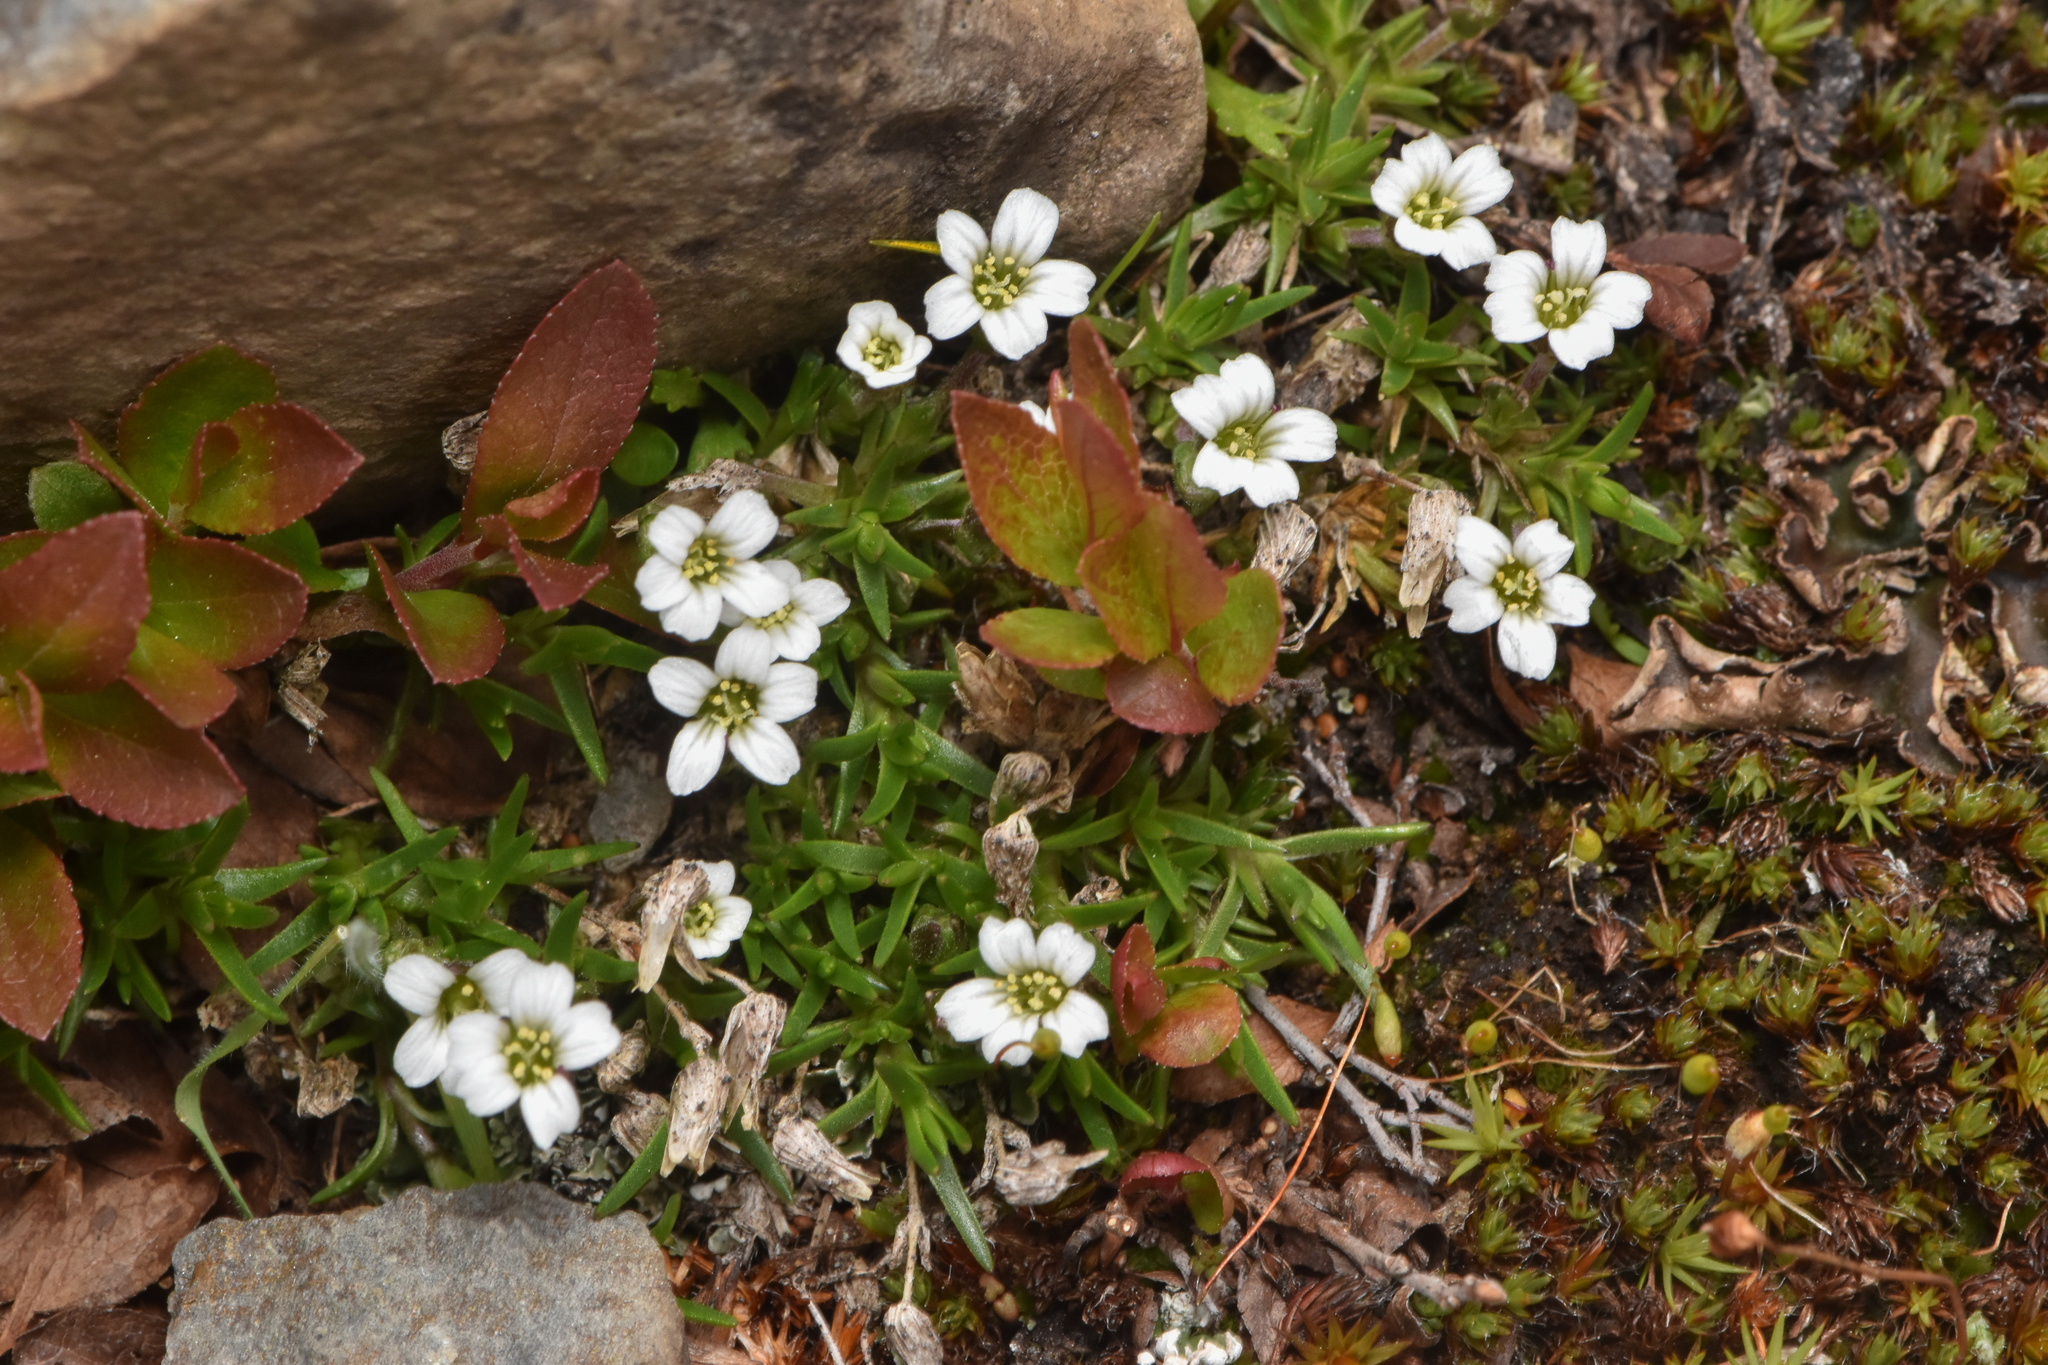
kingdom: Plantae
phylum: Tracheophyta
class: Magnoliopsida
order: Caryophyllales
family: Caryophyllaceae
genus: Cherleria
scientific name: Cherleria biflora
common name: Mountain sandwort
